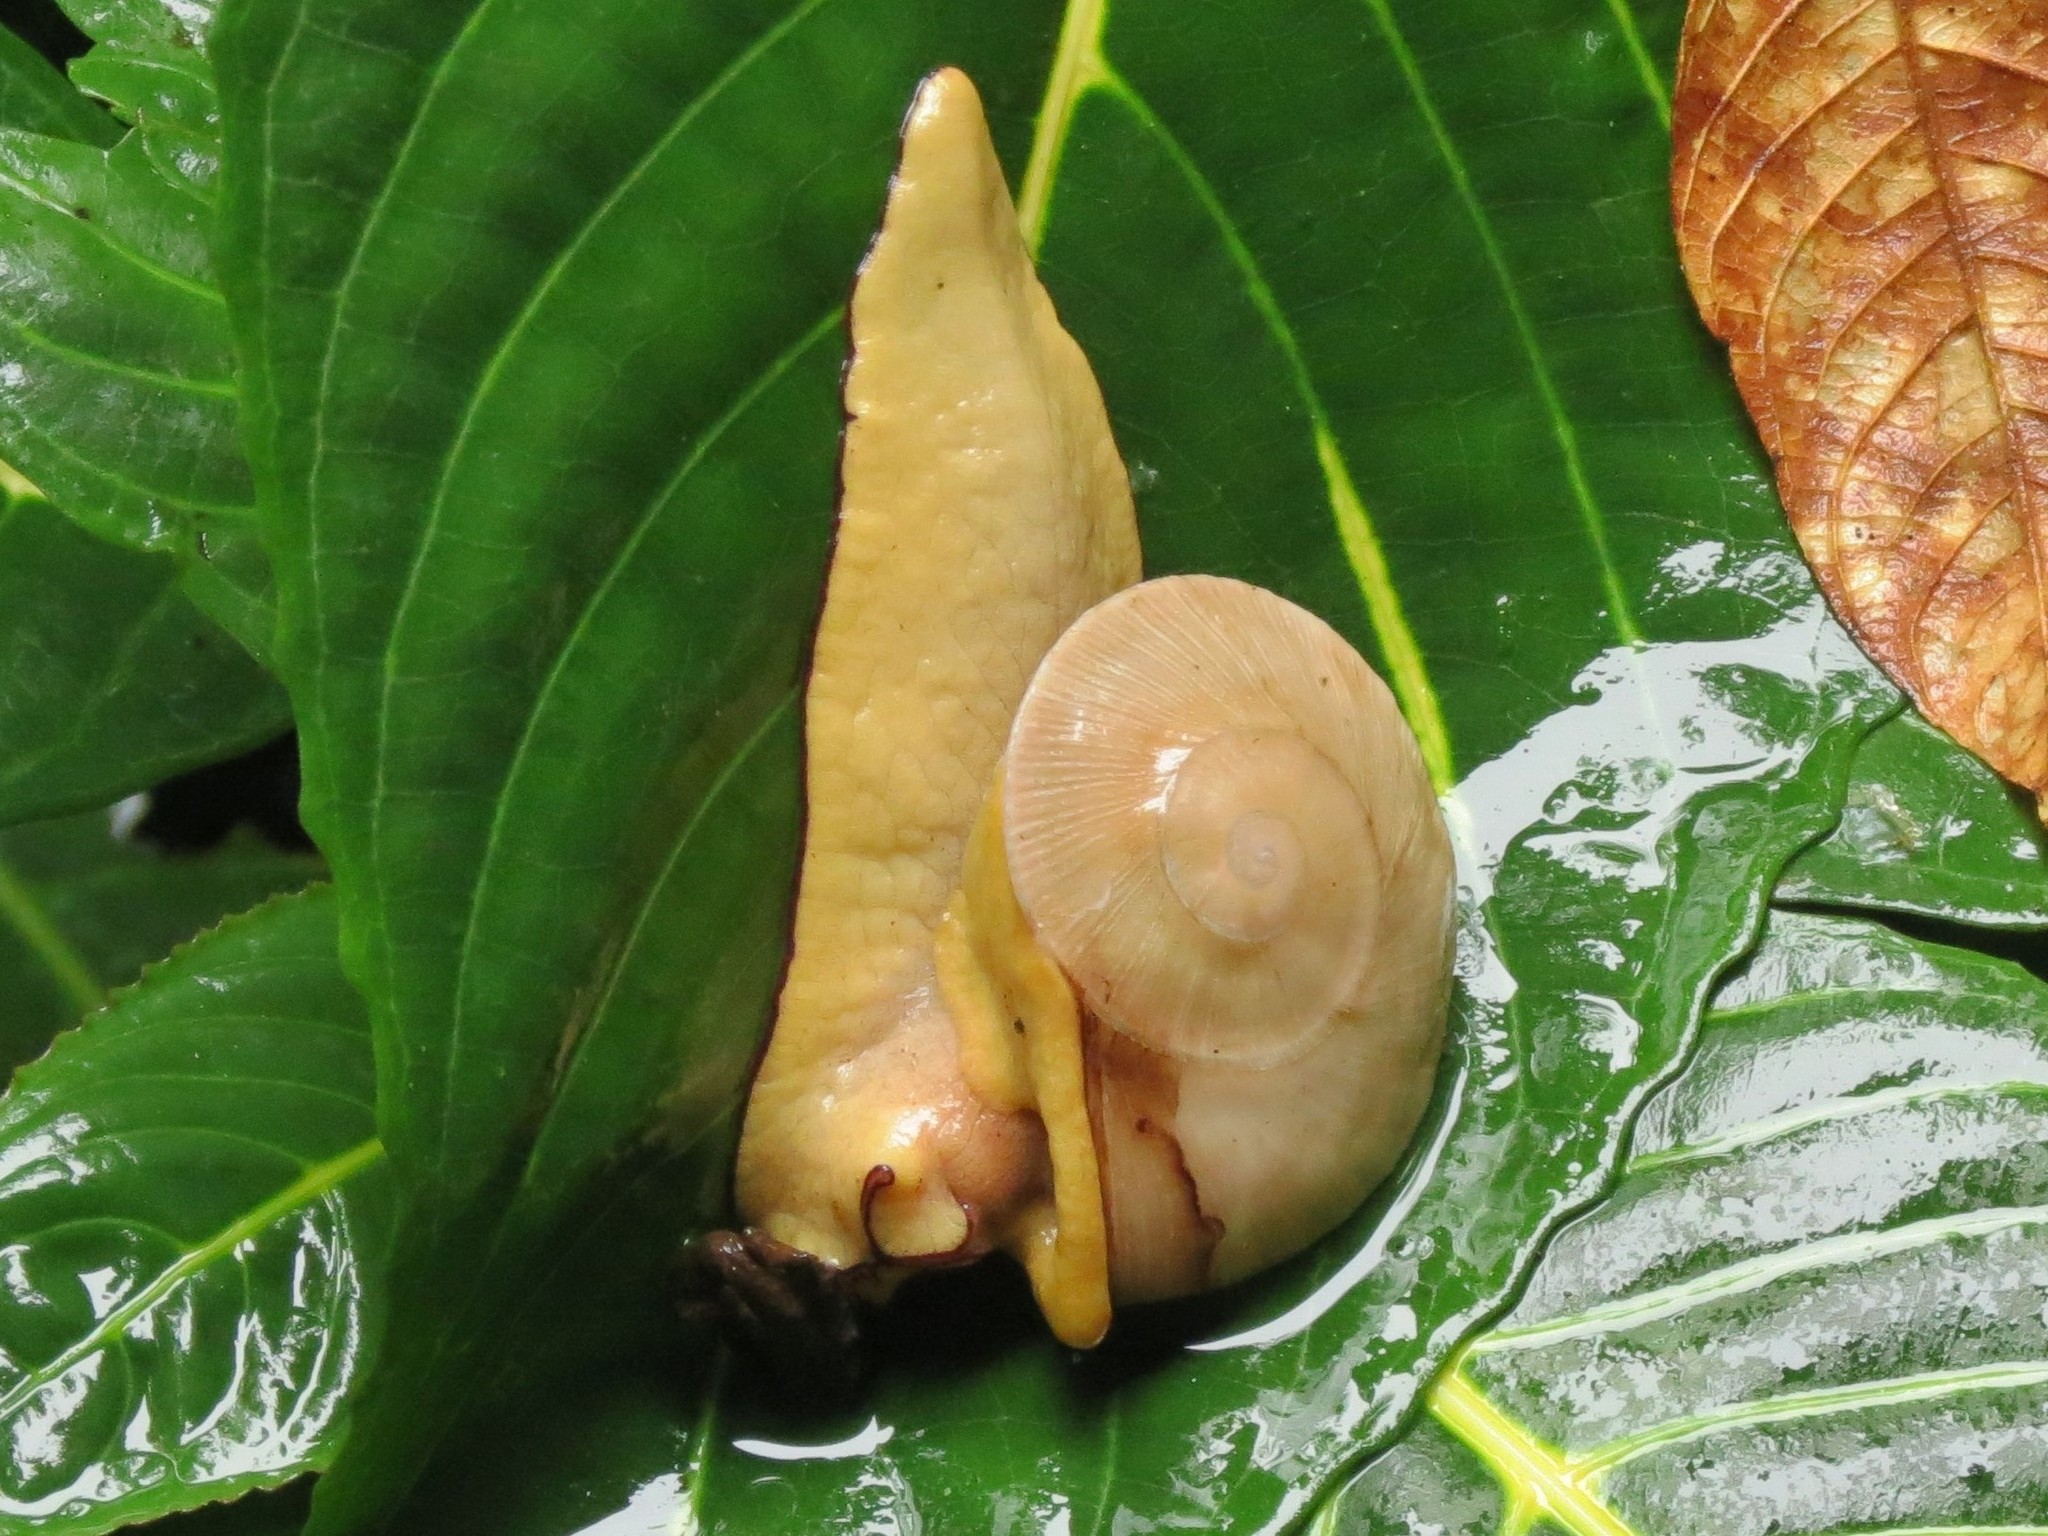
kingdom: Animalia
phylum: Mollusca
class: Gastropoda
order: Stylommatophora
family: Sagdidae
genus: Parthena
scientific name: Parthena acutangula
